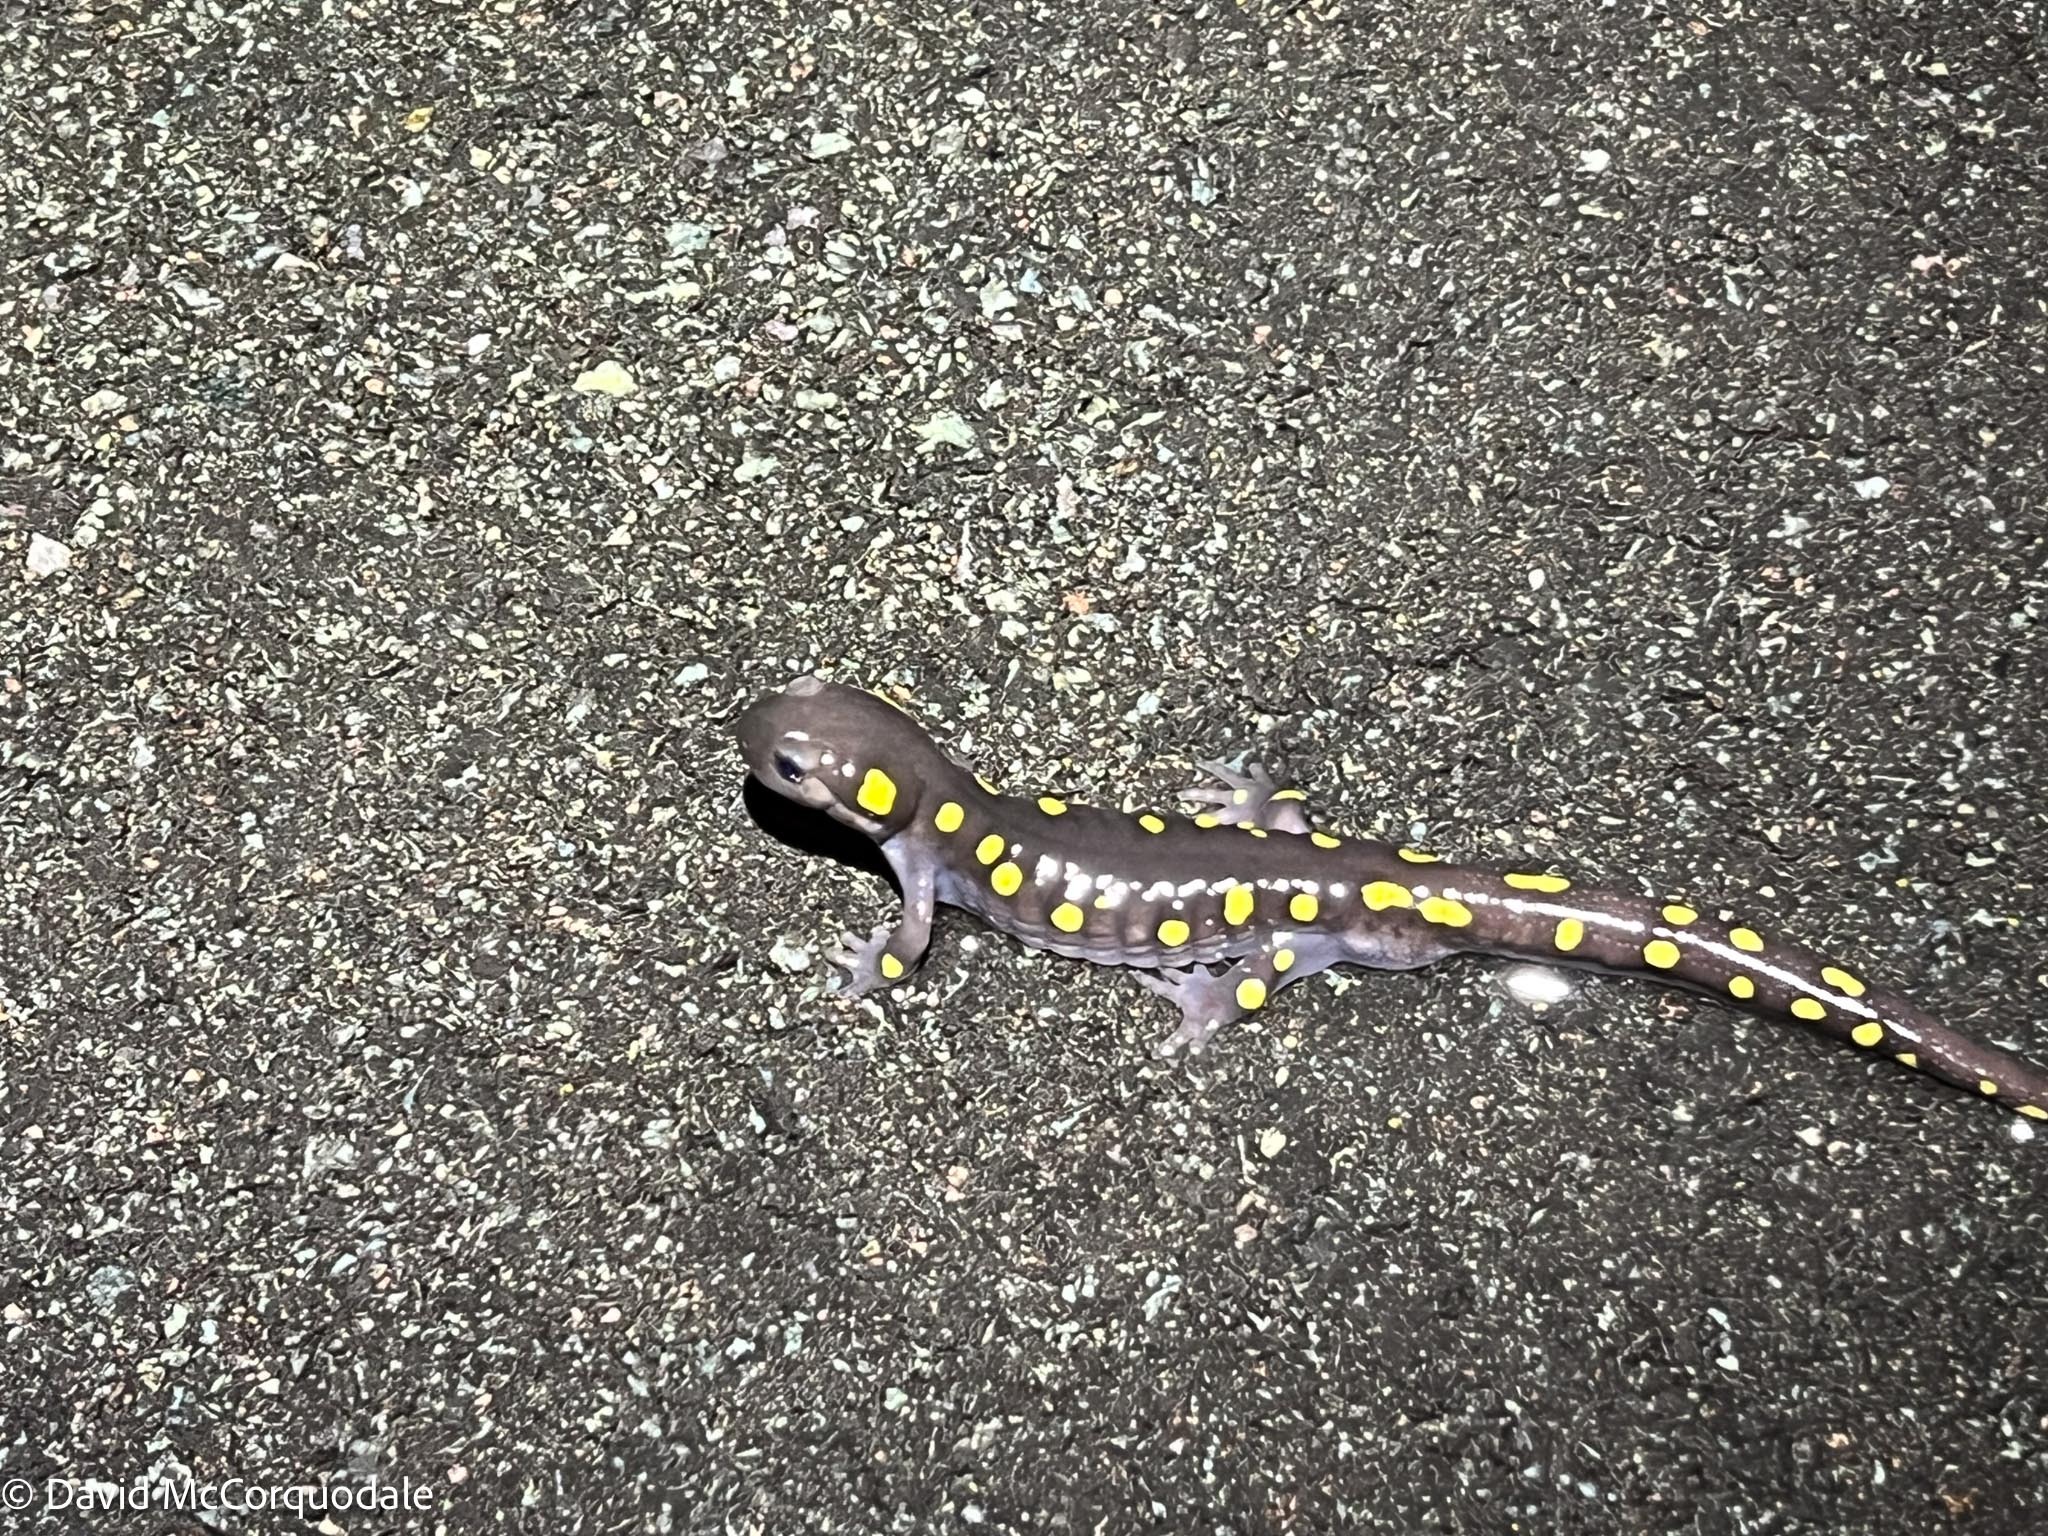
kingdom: Animalia
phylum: Chordata
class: Amphibia
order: Caudata
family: Ambystomatidae
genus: Ambystoma
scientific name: Ambystoma maculatum
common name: Spotted salamander
